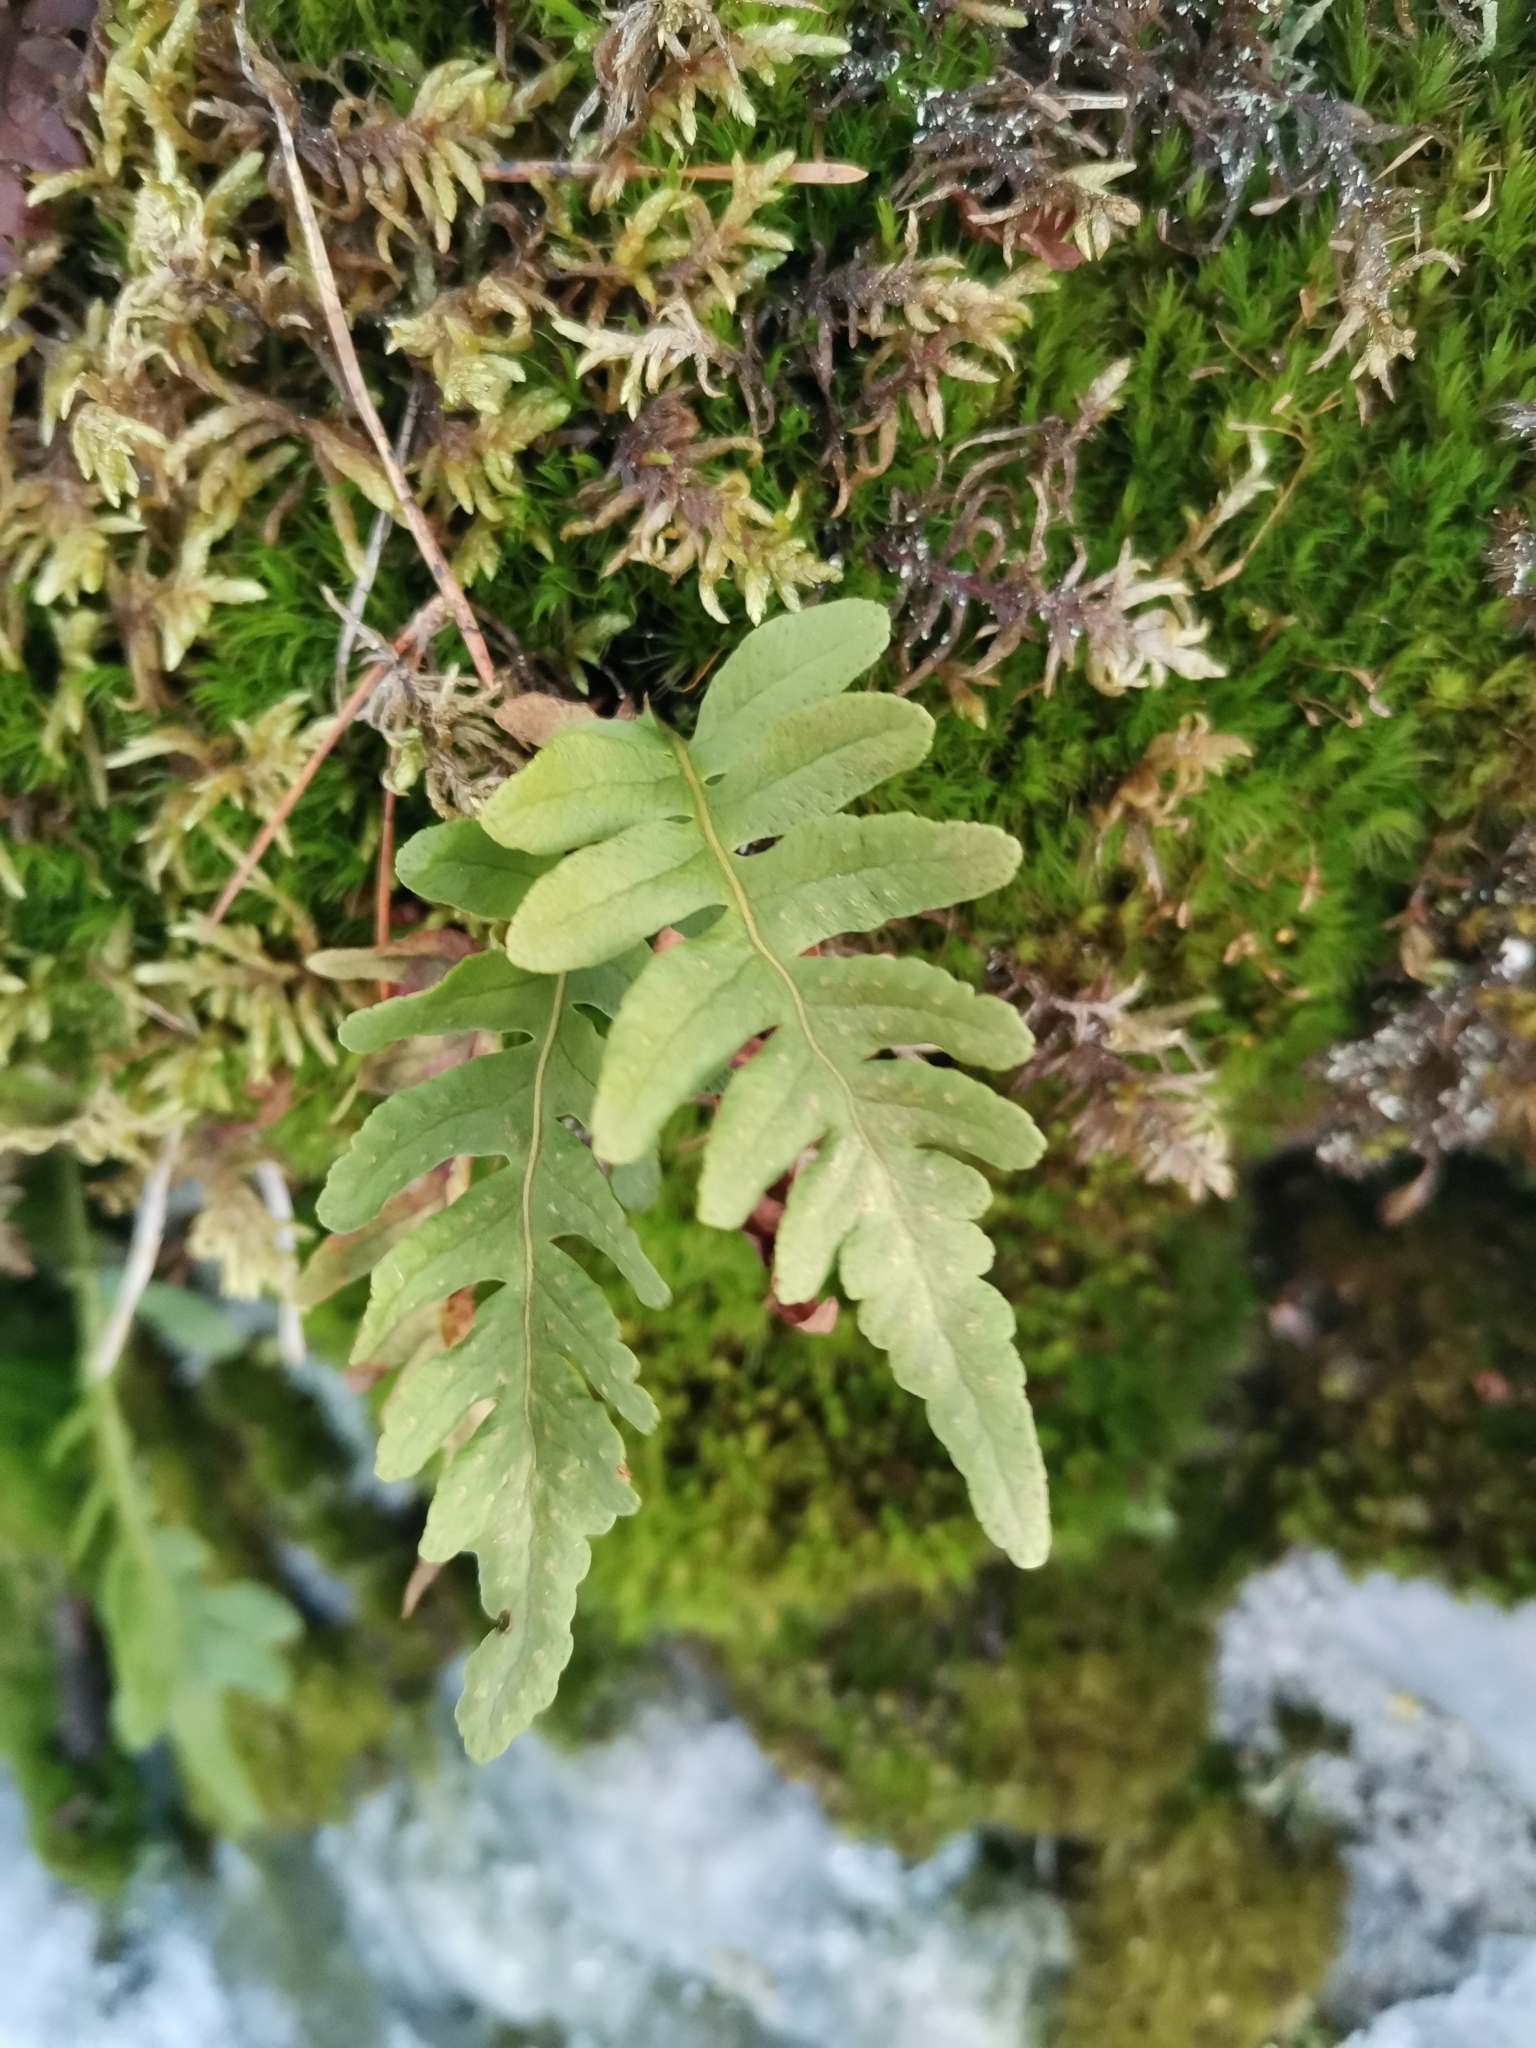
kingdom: Plantae
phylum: Tracheophyta
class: Polypodiopsida
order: Polypodiales
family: Polypodiaceae
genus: Polypodium
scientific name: Polypodium vulgare
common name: Common polypody
